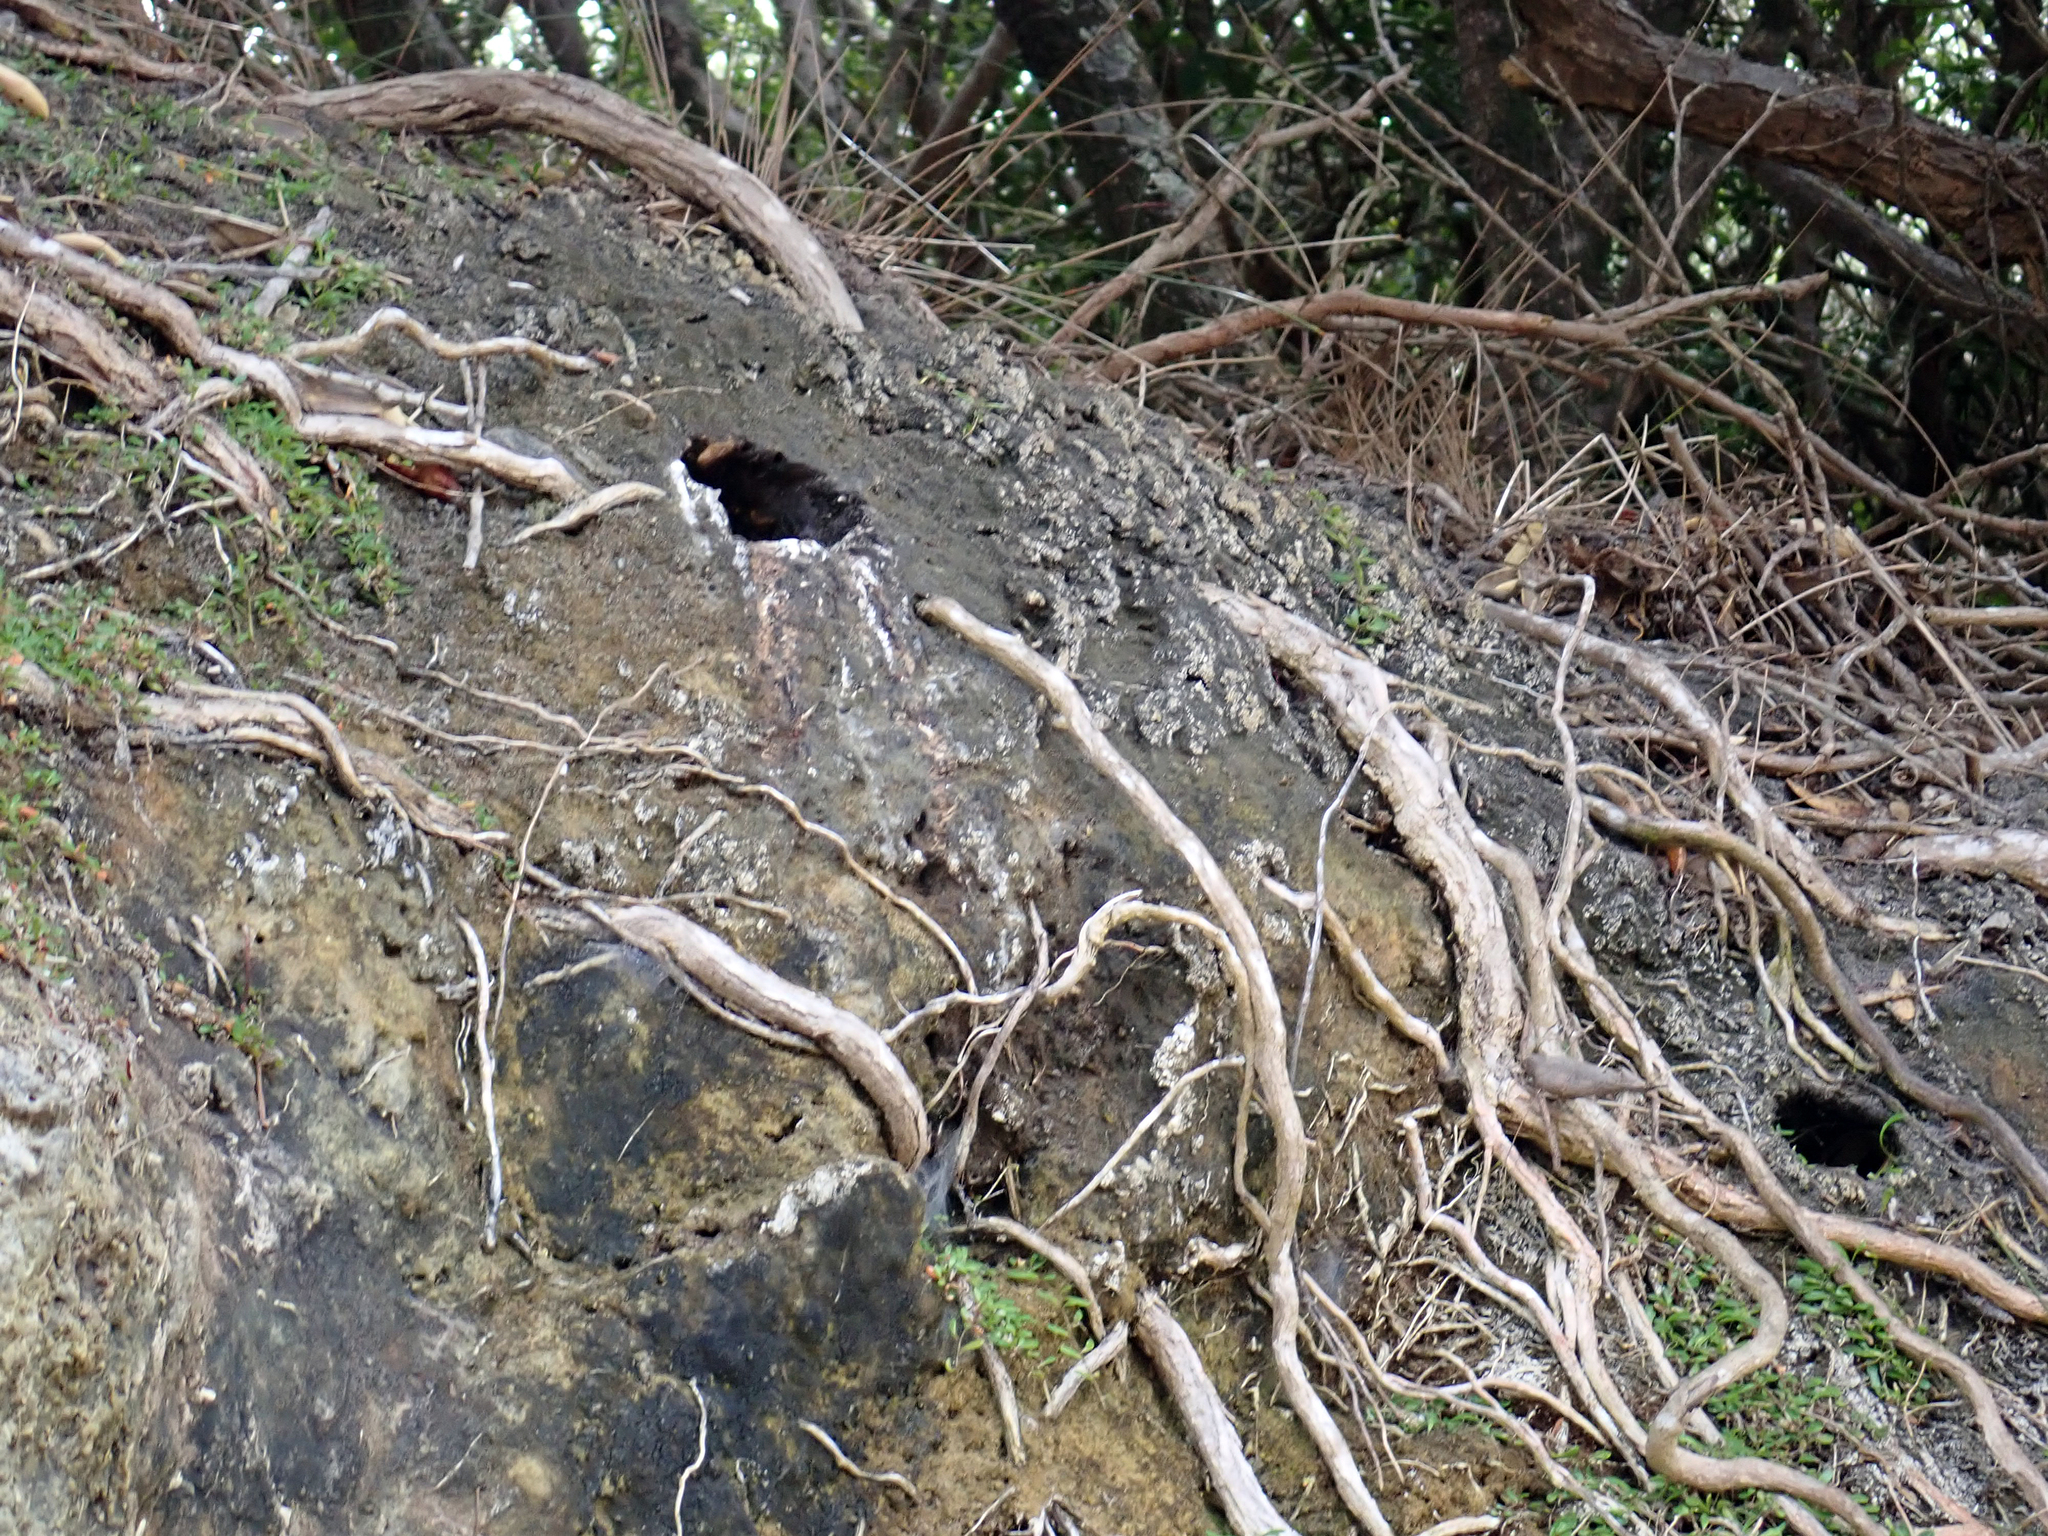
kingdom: Animalia
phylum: Chordata
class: Aves
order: Coraciiformes
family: Alcedinidae
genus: Todiramphus
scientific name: Todiramphus sanctus
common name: Sacred kingfisher
